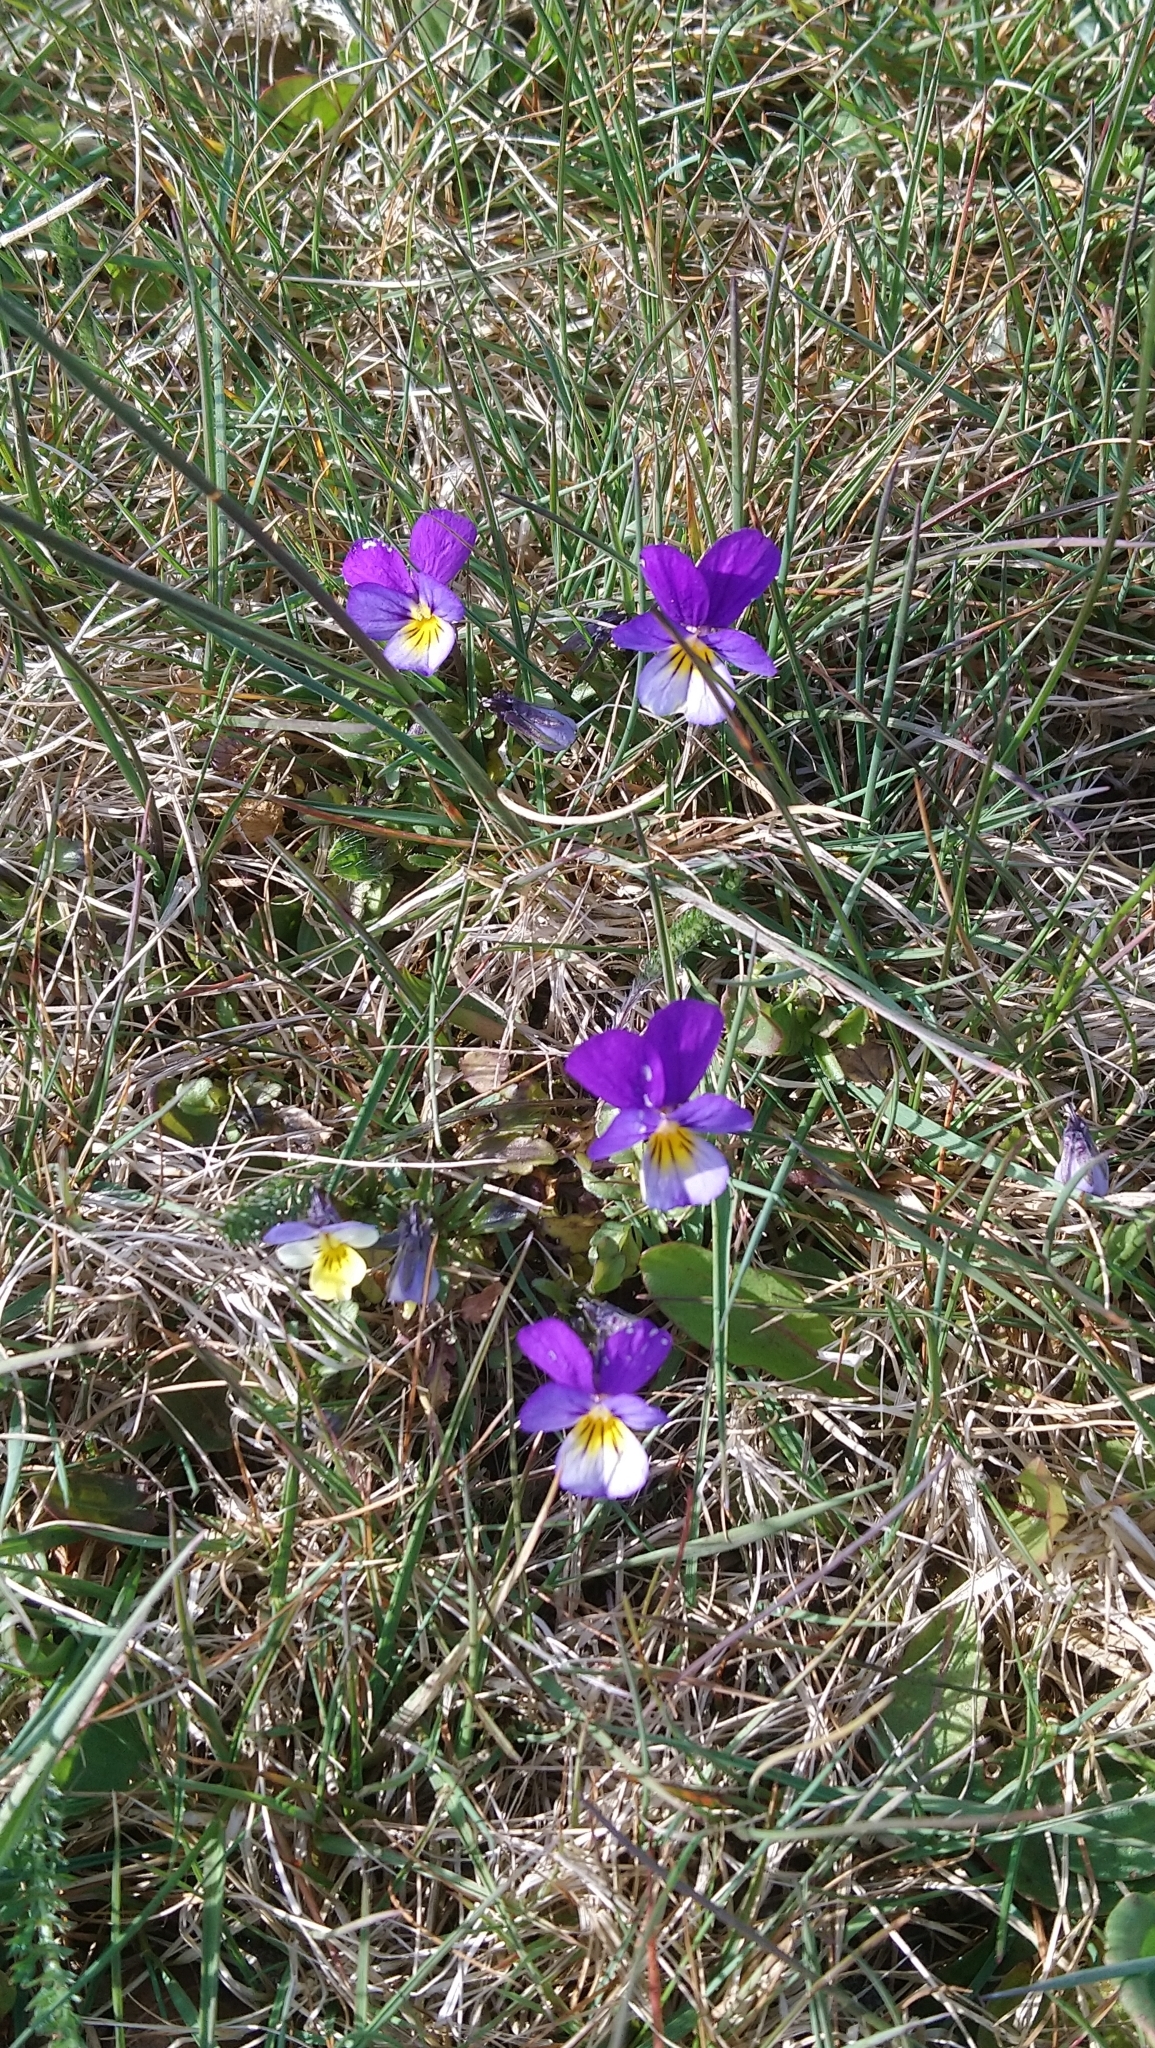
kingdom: Plantae
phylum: Tracheophyta
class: Magnoliopsida
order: Malpighiales
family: Violaceae
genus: Viola
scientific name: Viola tricolor
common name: Pansy
